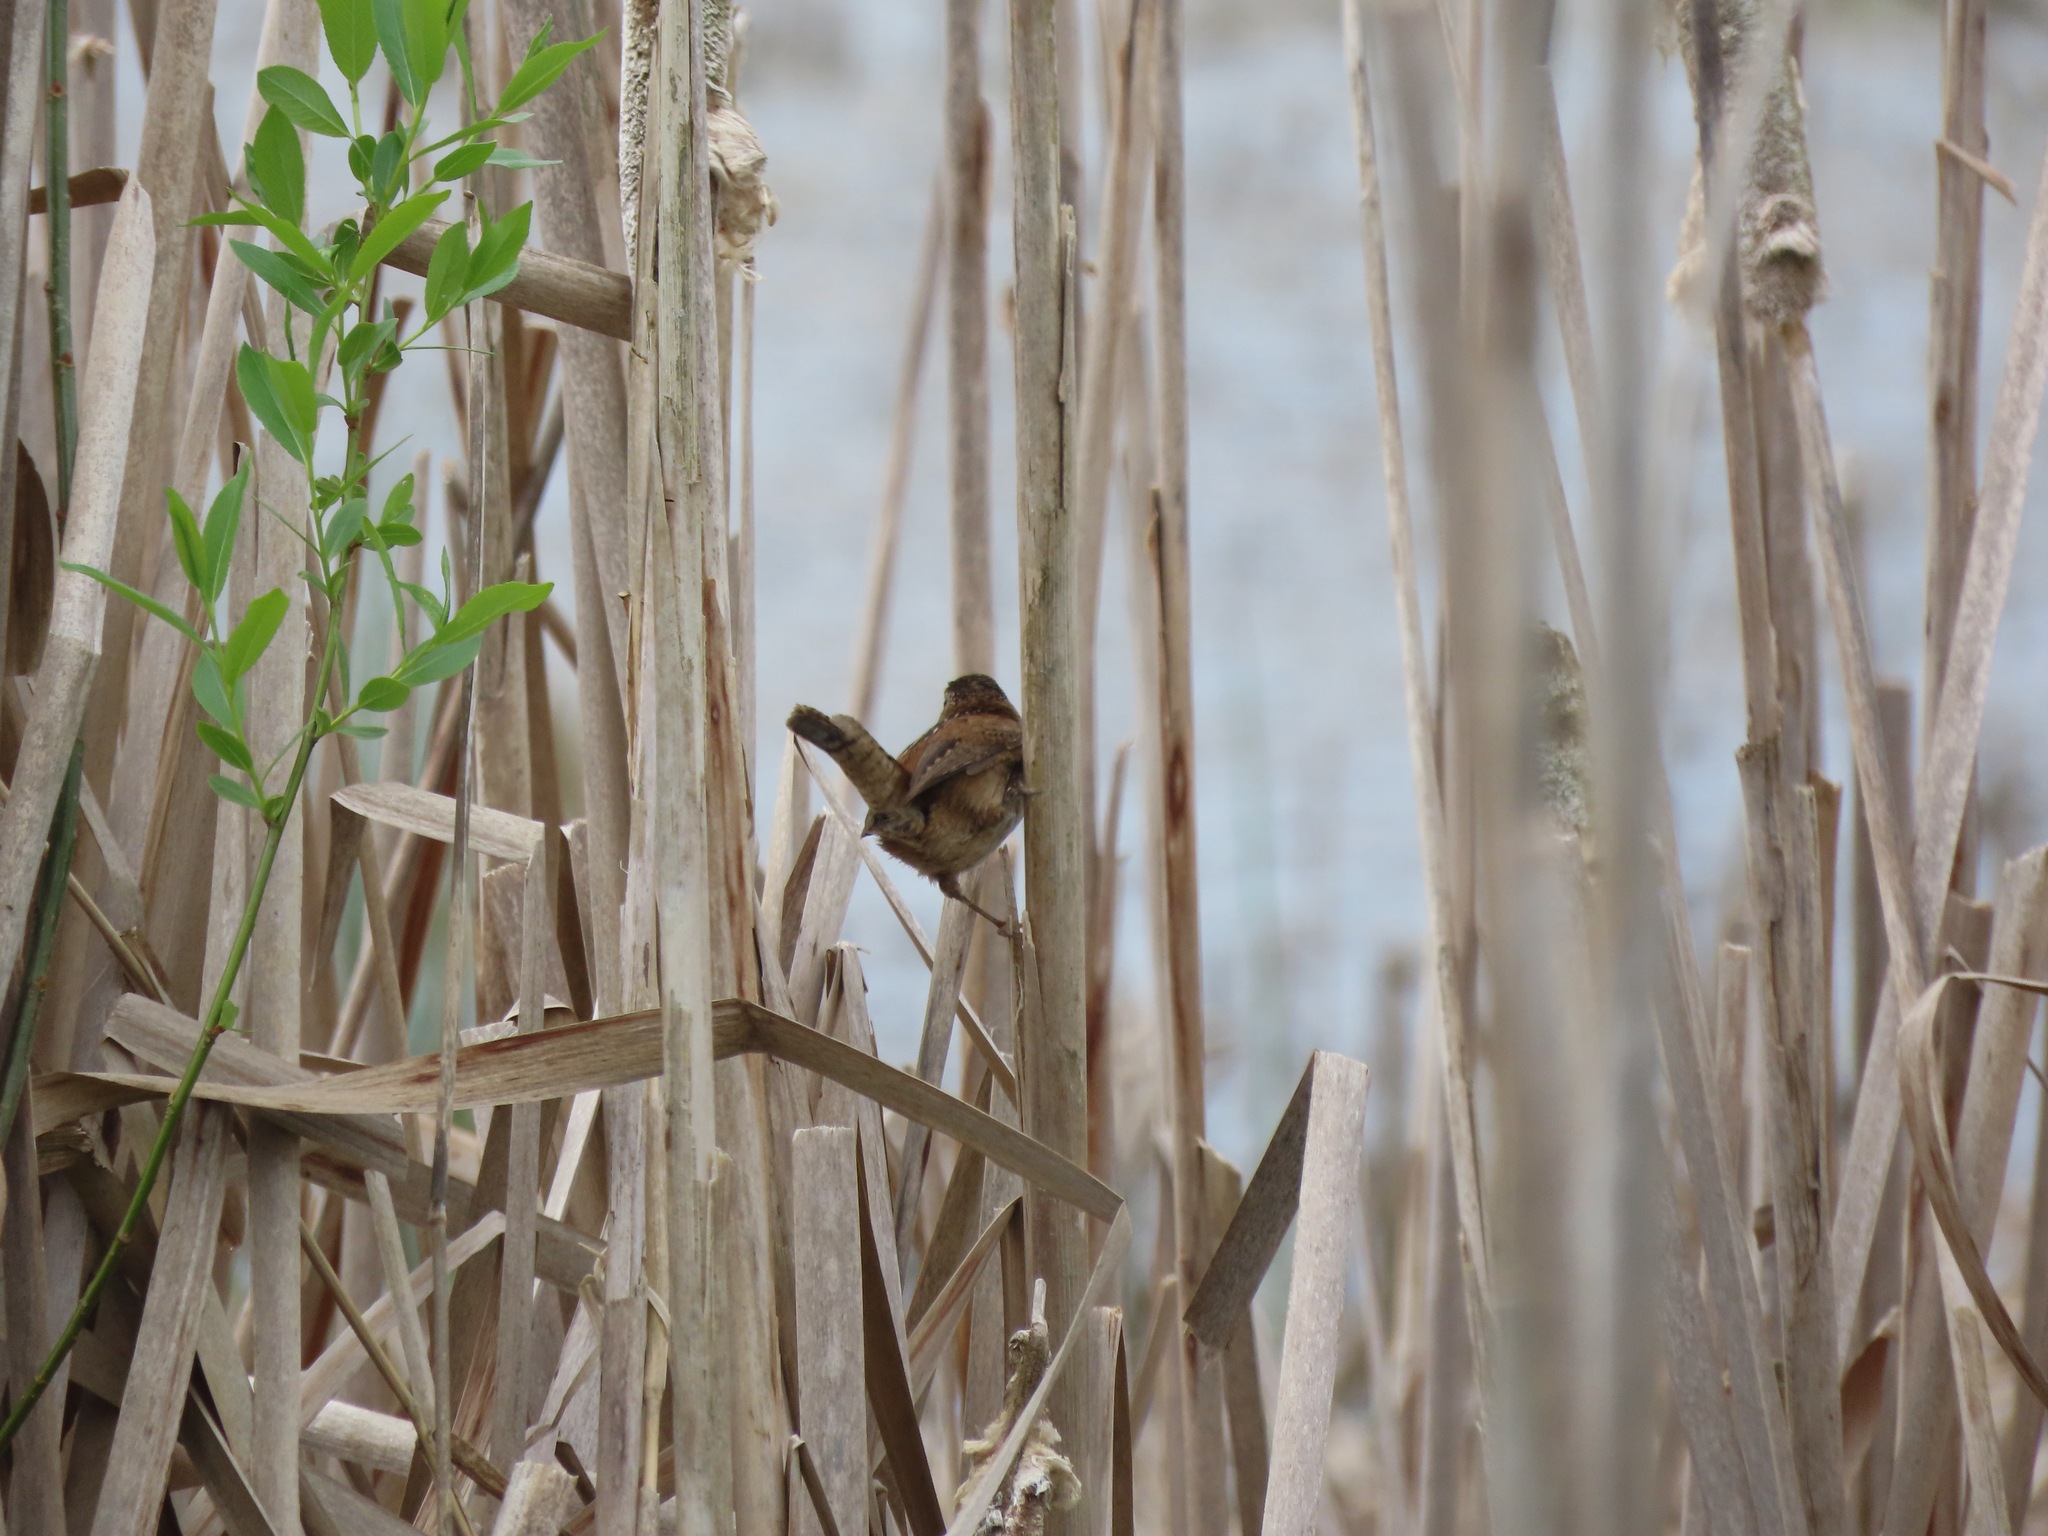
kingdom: Animalia
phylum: Chordata
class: Aves
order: Passeriformes
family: Troglodytidae
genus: Cistothorus
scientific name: Cistothorus palustris
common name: Marsh wren
